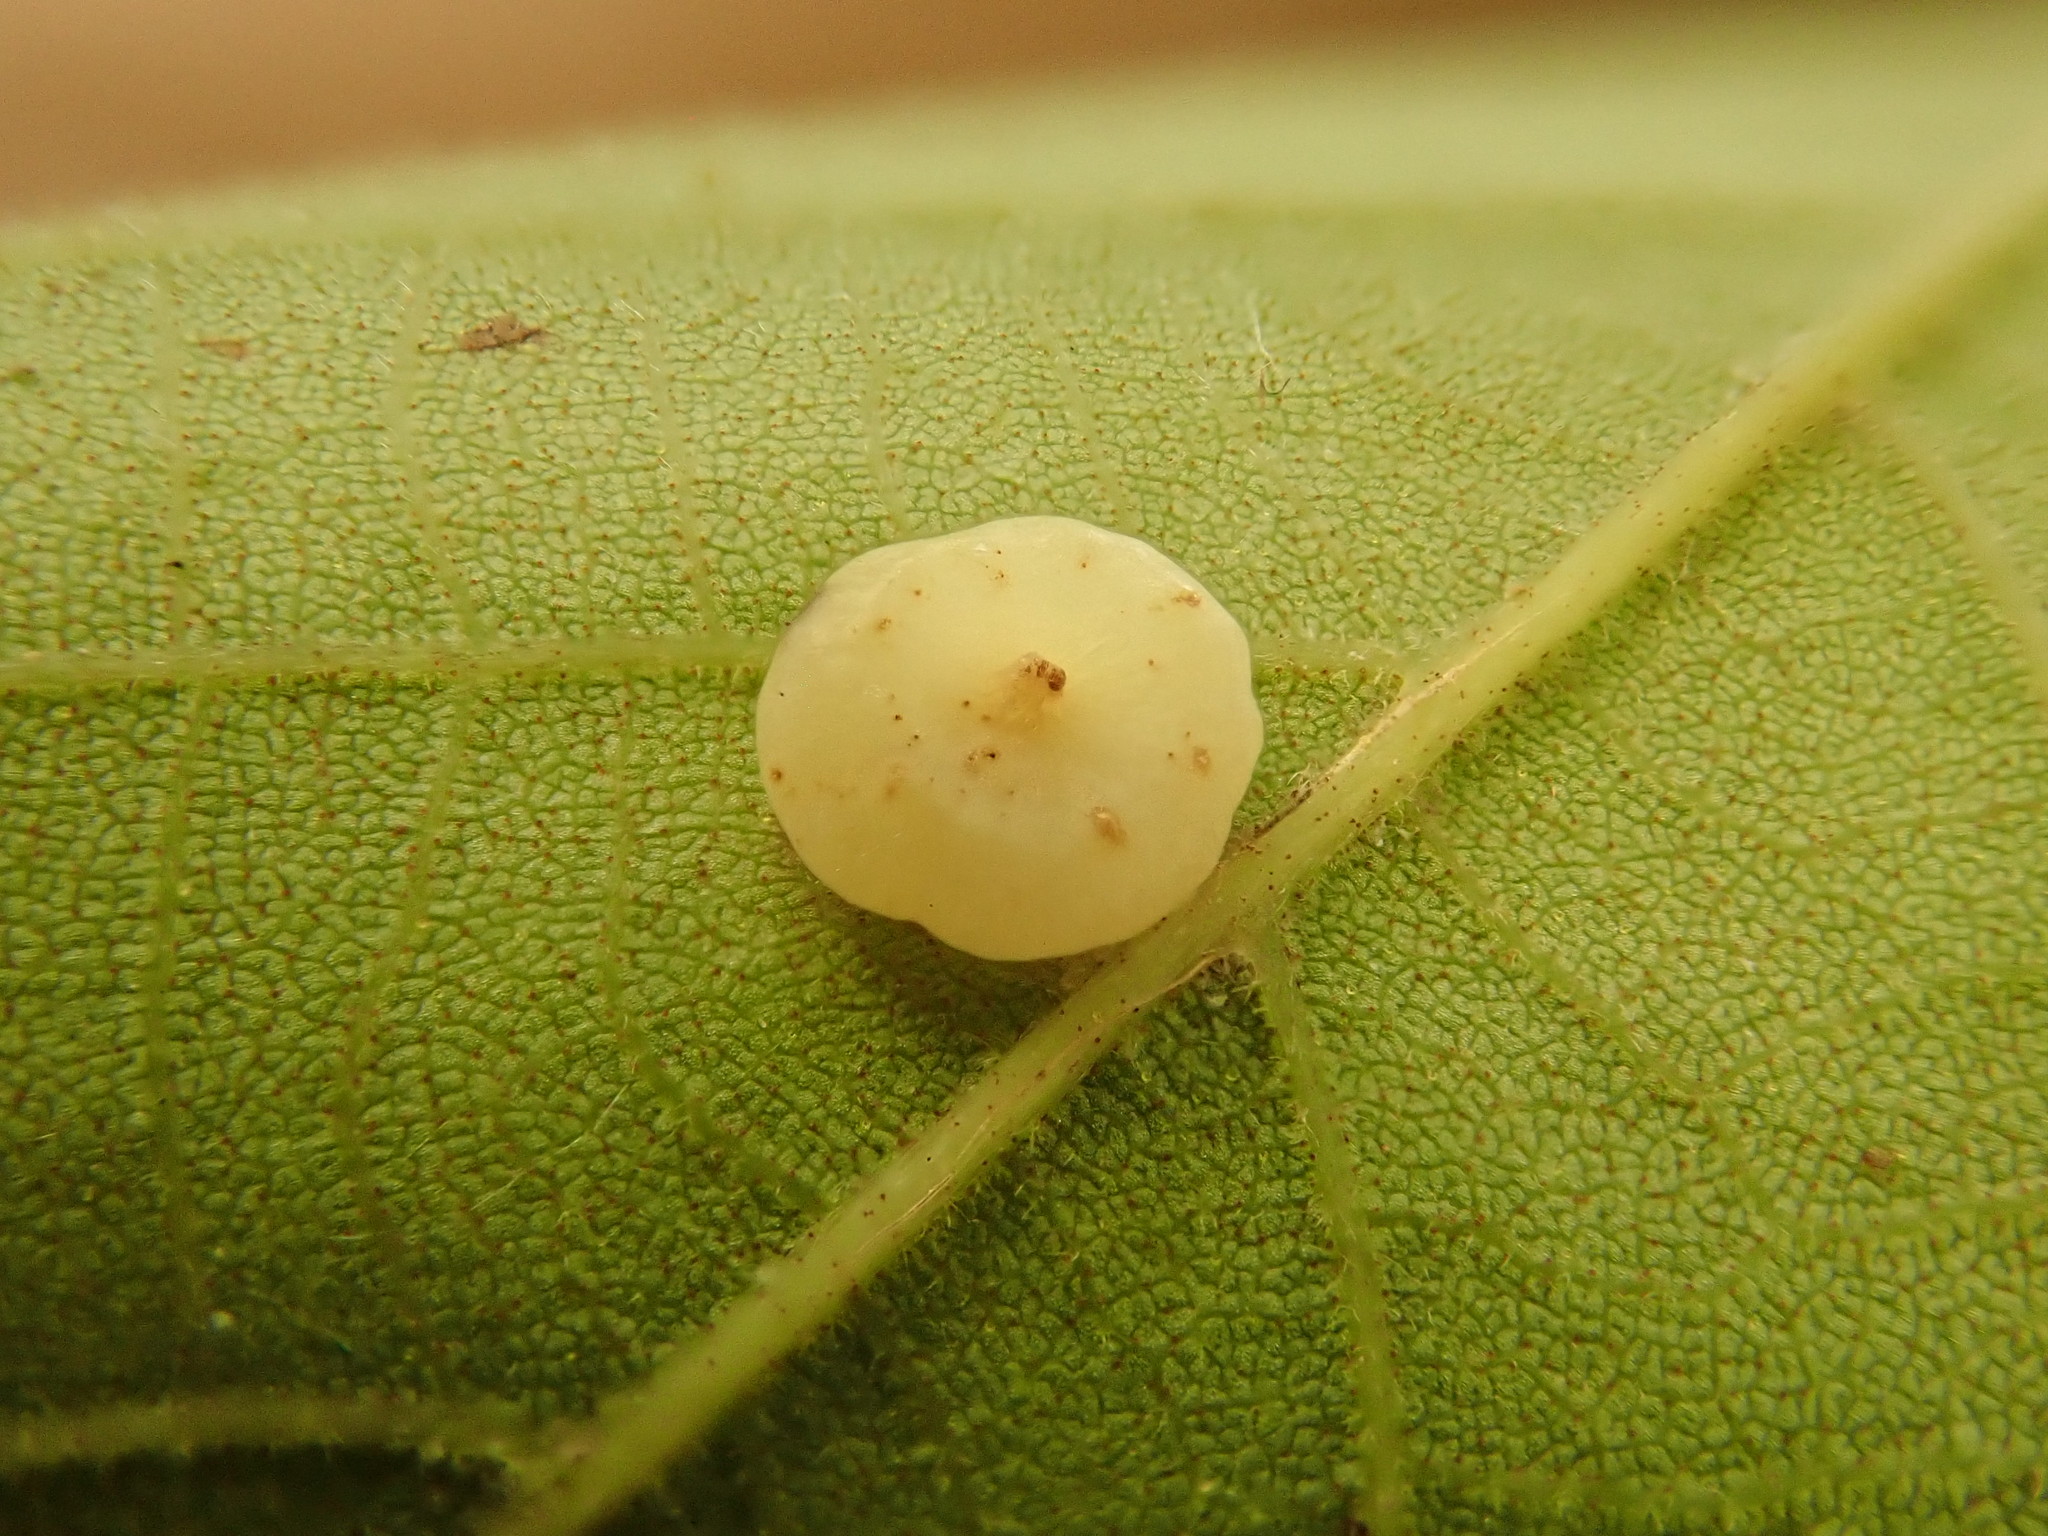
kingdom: Animalia
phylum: Arthropoda
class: Insecta
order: Diptera
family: Cecidomyiidae
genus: Caryomyia
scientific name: Caryomyia biretta
